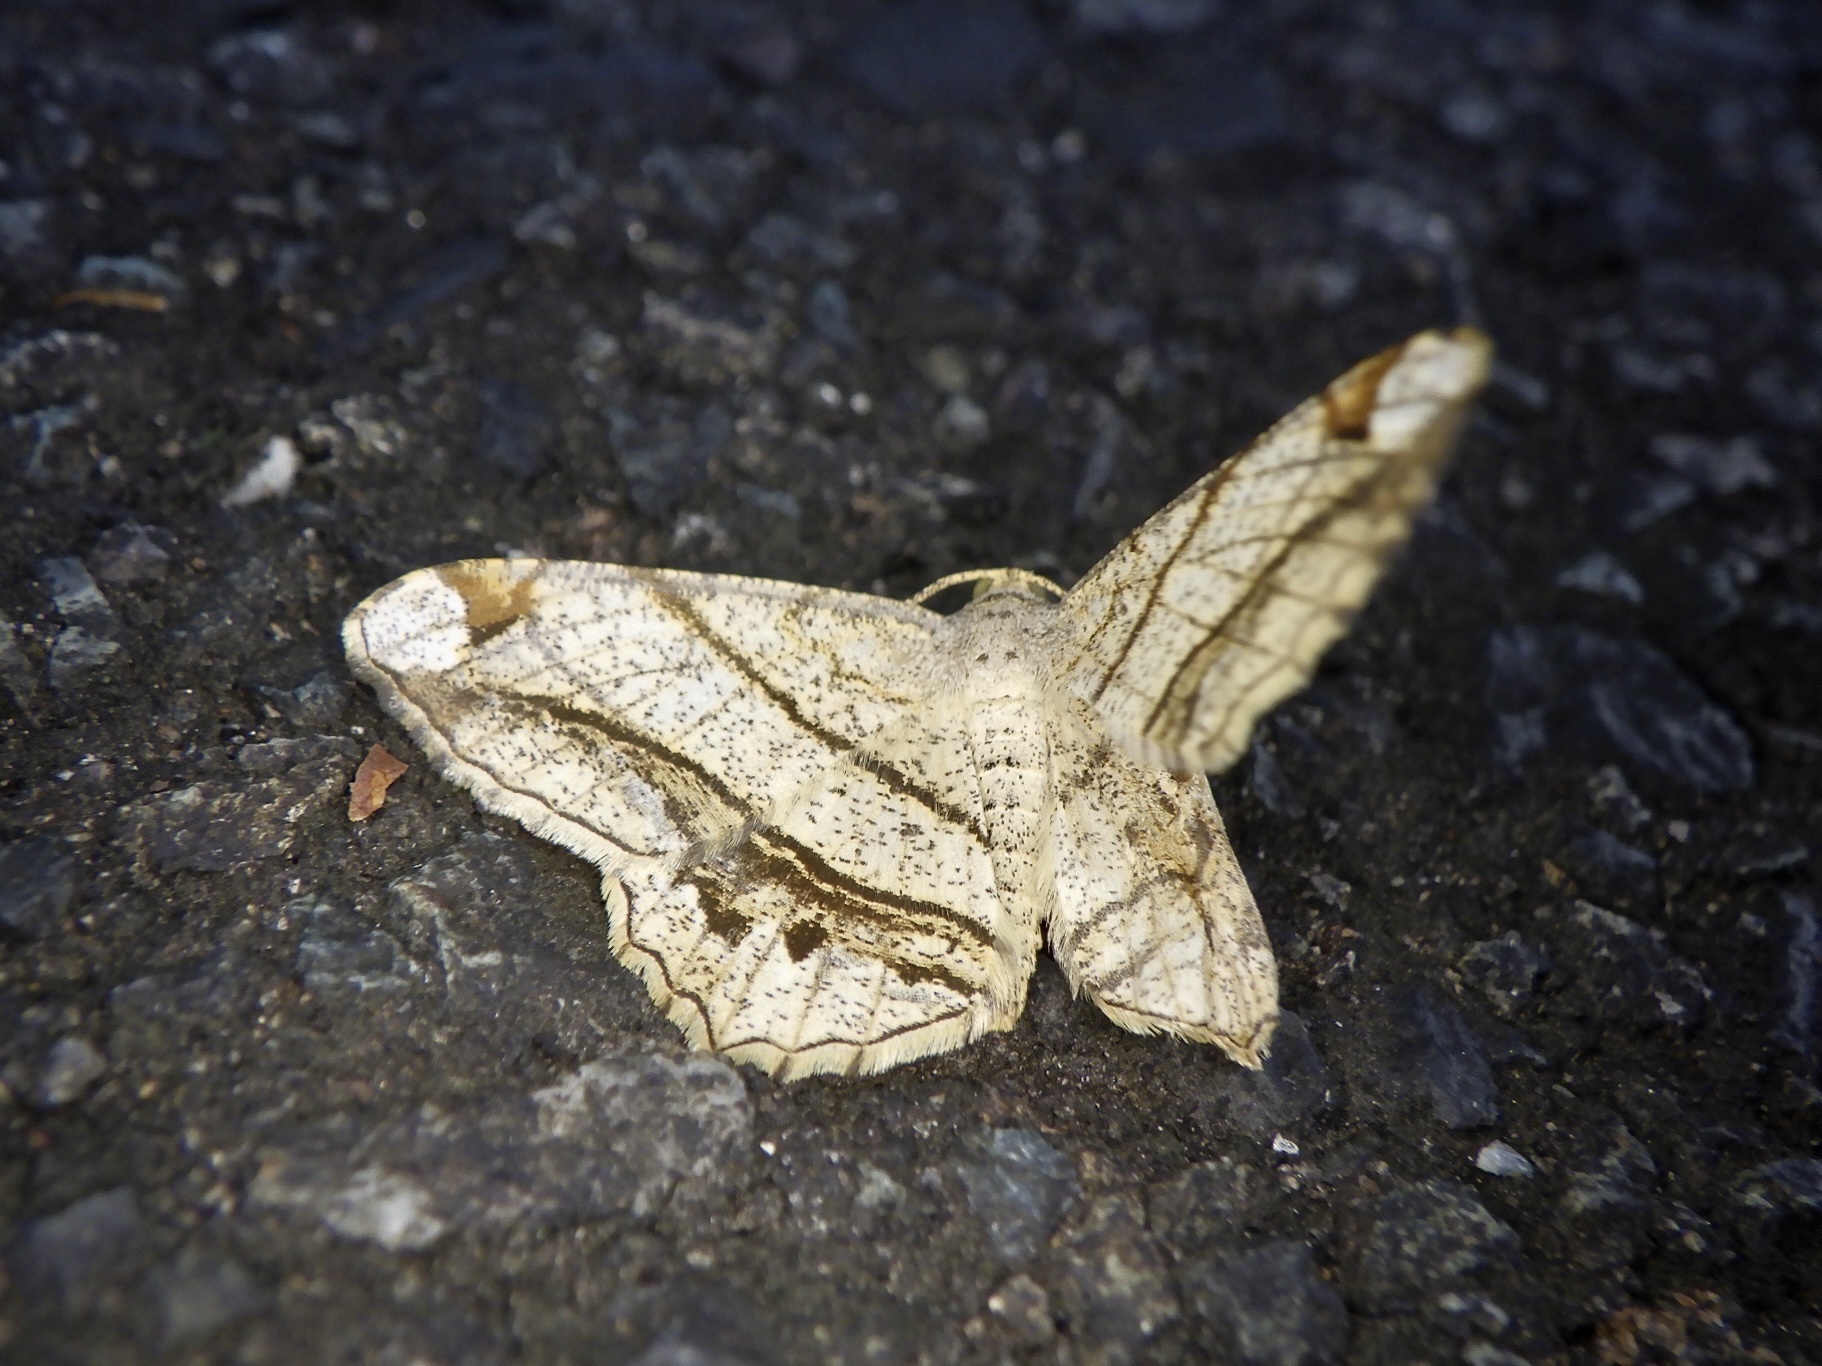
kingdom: Animalia
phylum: Arthropoda
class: Insecta
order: Lepidoptera
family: Geometridae
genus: Chiasmia
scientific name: Chiasmia defixaria
